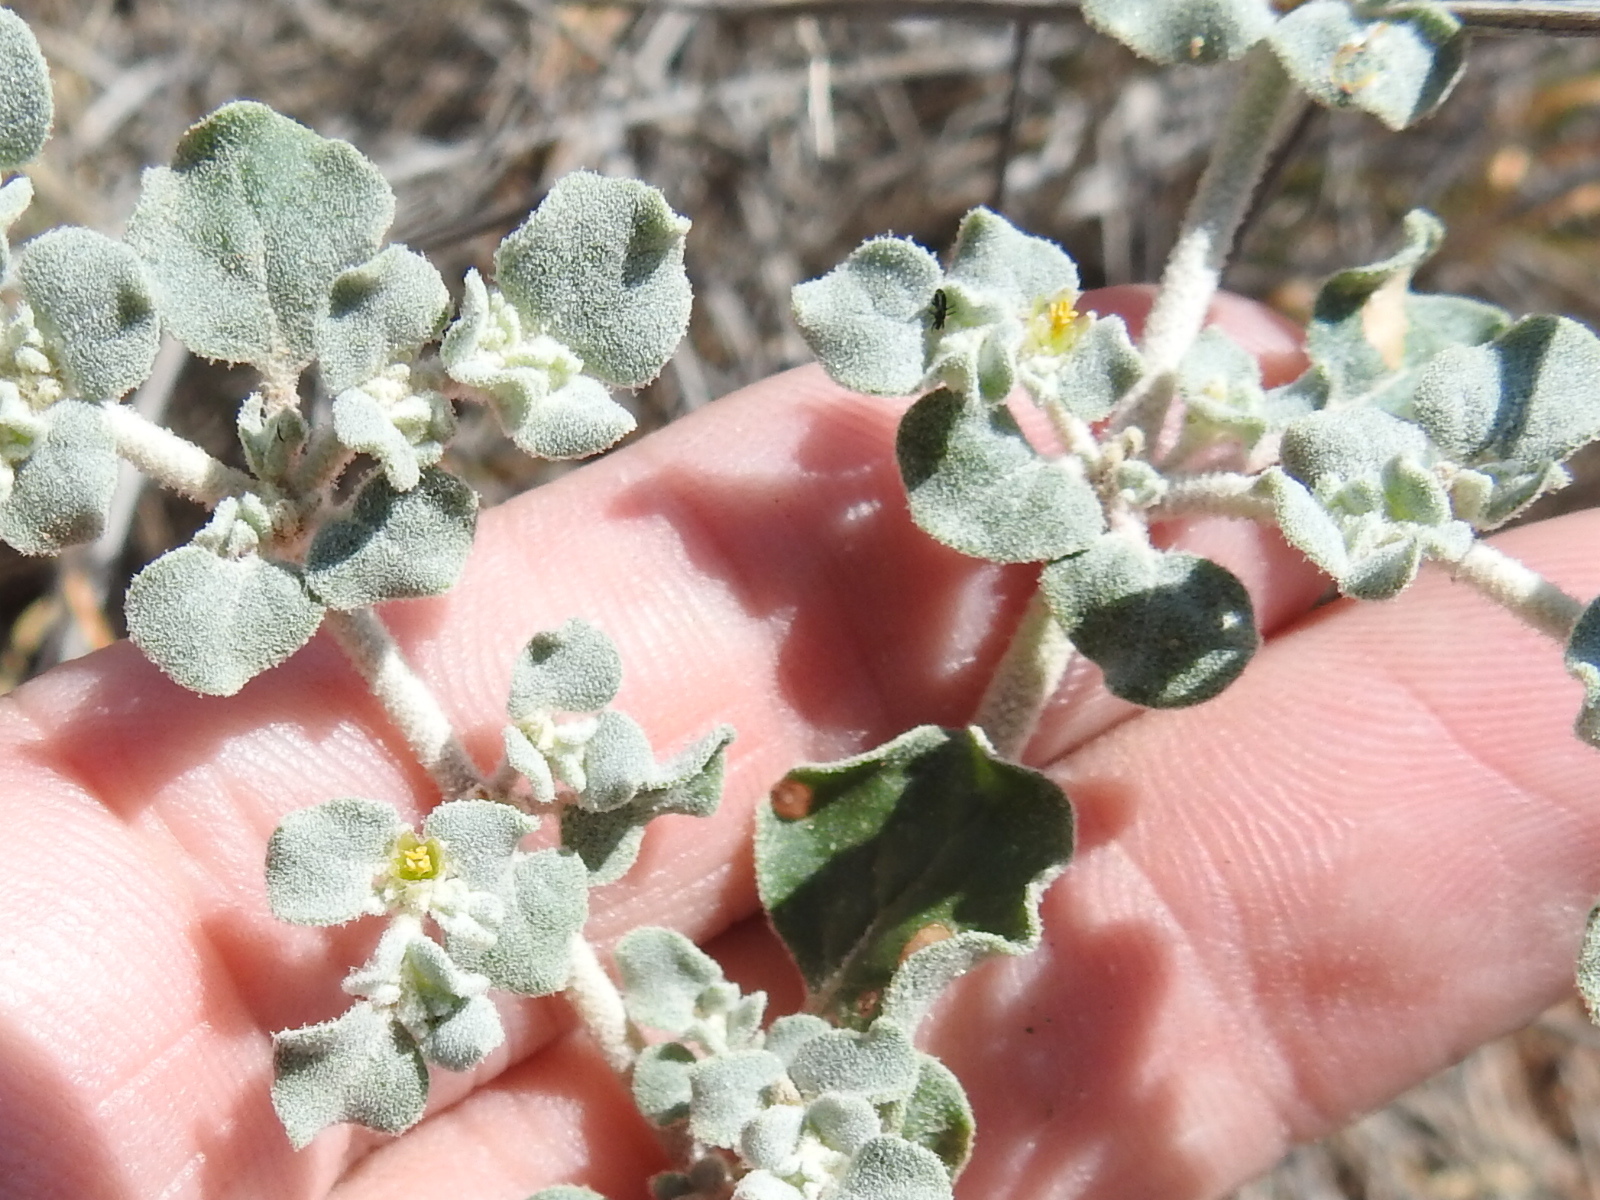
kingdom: Plantae
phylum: Tracheophyta
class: Magnoliopsida
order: Caryophyllales
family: Amaranthaceae
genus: Tidestromia
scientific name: Tidestromia lanuginosa
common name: Woolly tidestromia
